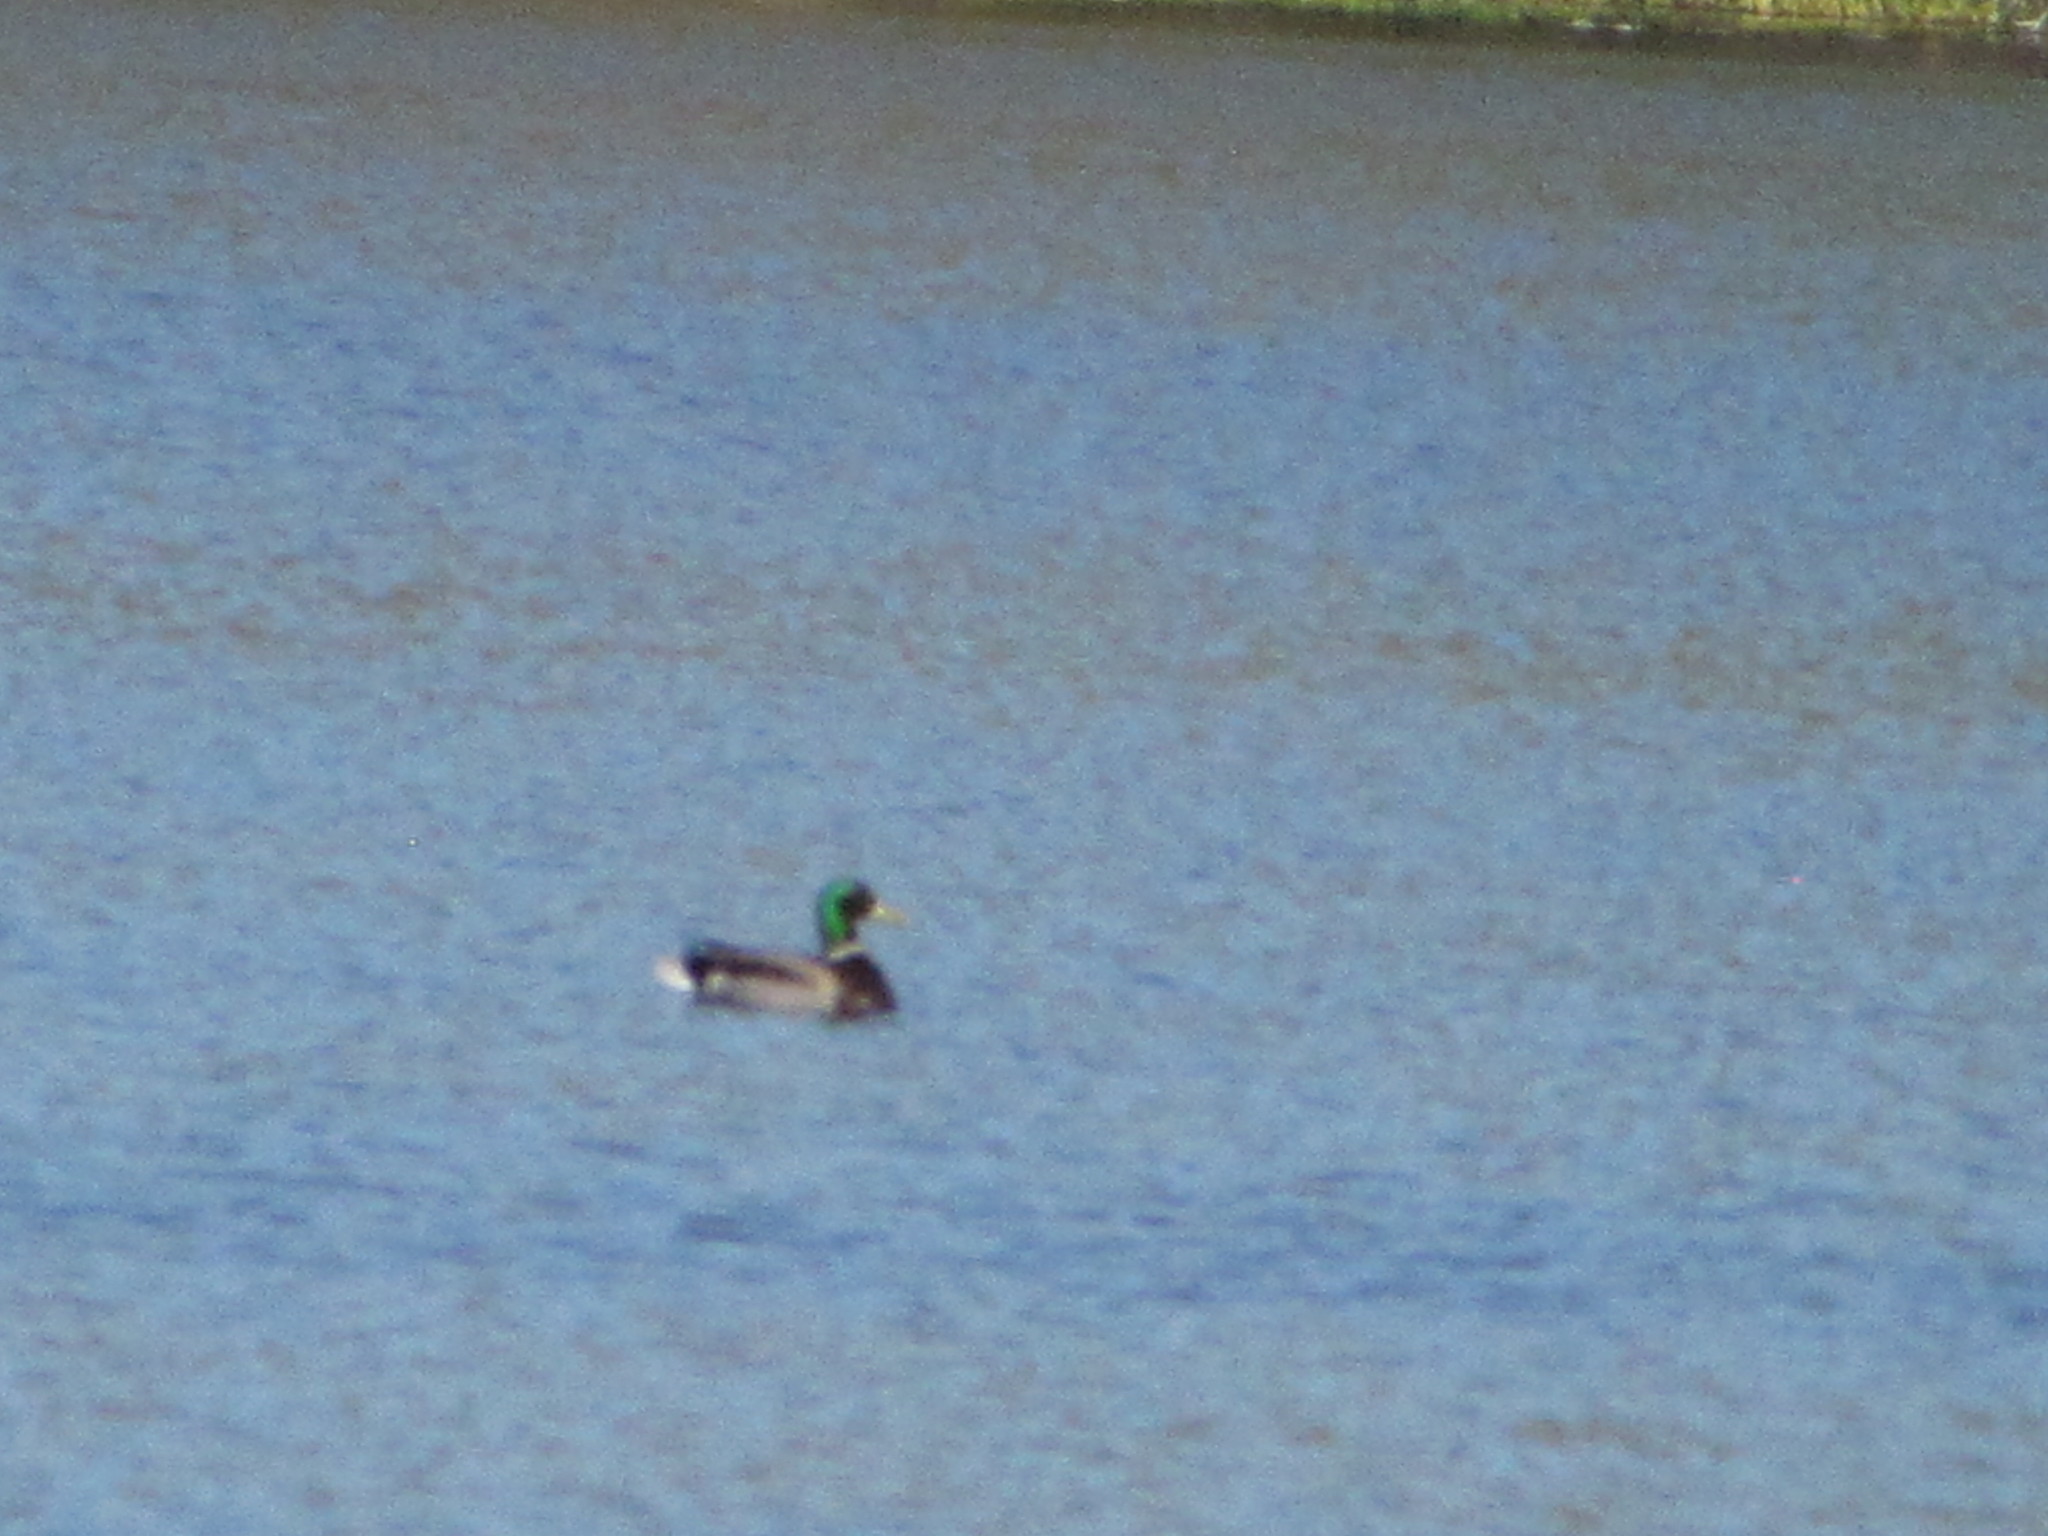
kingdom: Animalia
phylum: Chordata
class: Aves
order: Anseriformes
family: Anatidae
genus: Anas
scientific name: Anas platyrhynchos
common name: Mallard
